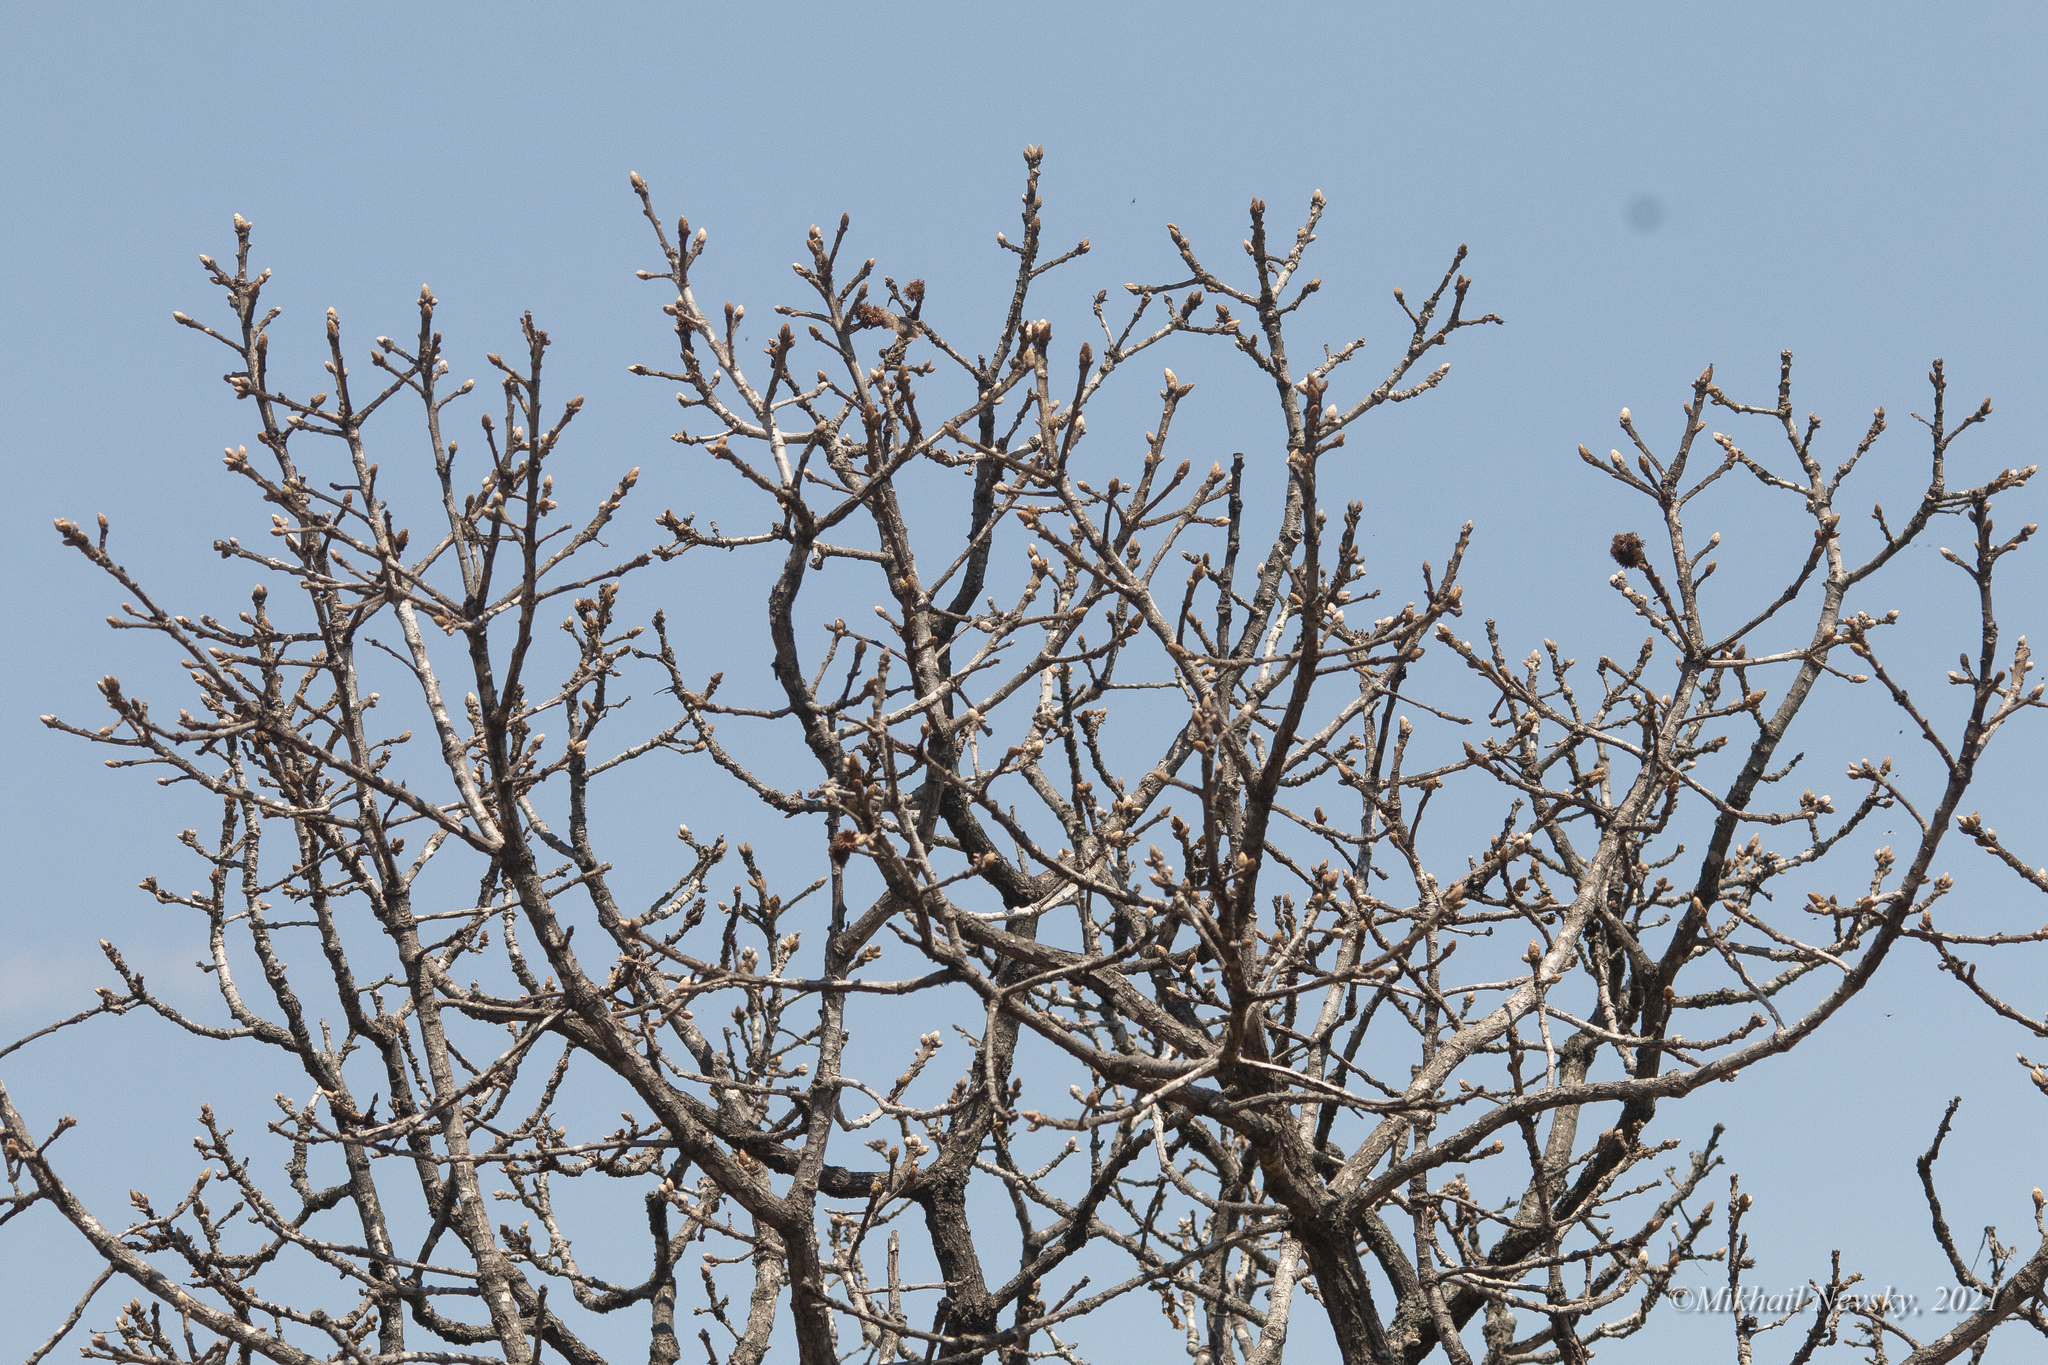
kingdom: Plantae
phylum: Tracheophyta
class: Magnoliopsida
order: Fagales
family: Fagaceae
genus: Quercus
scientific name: Quercus mongolica
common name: Mongolian oak
